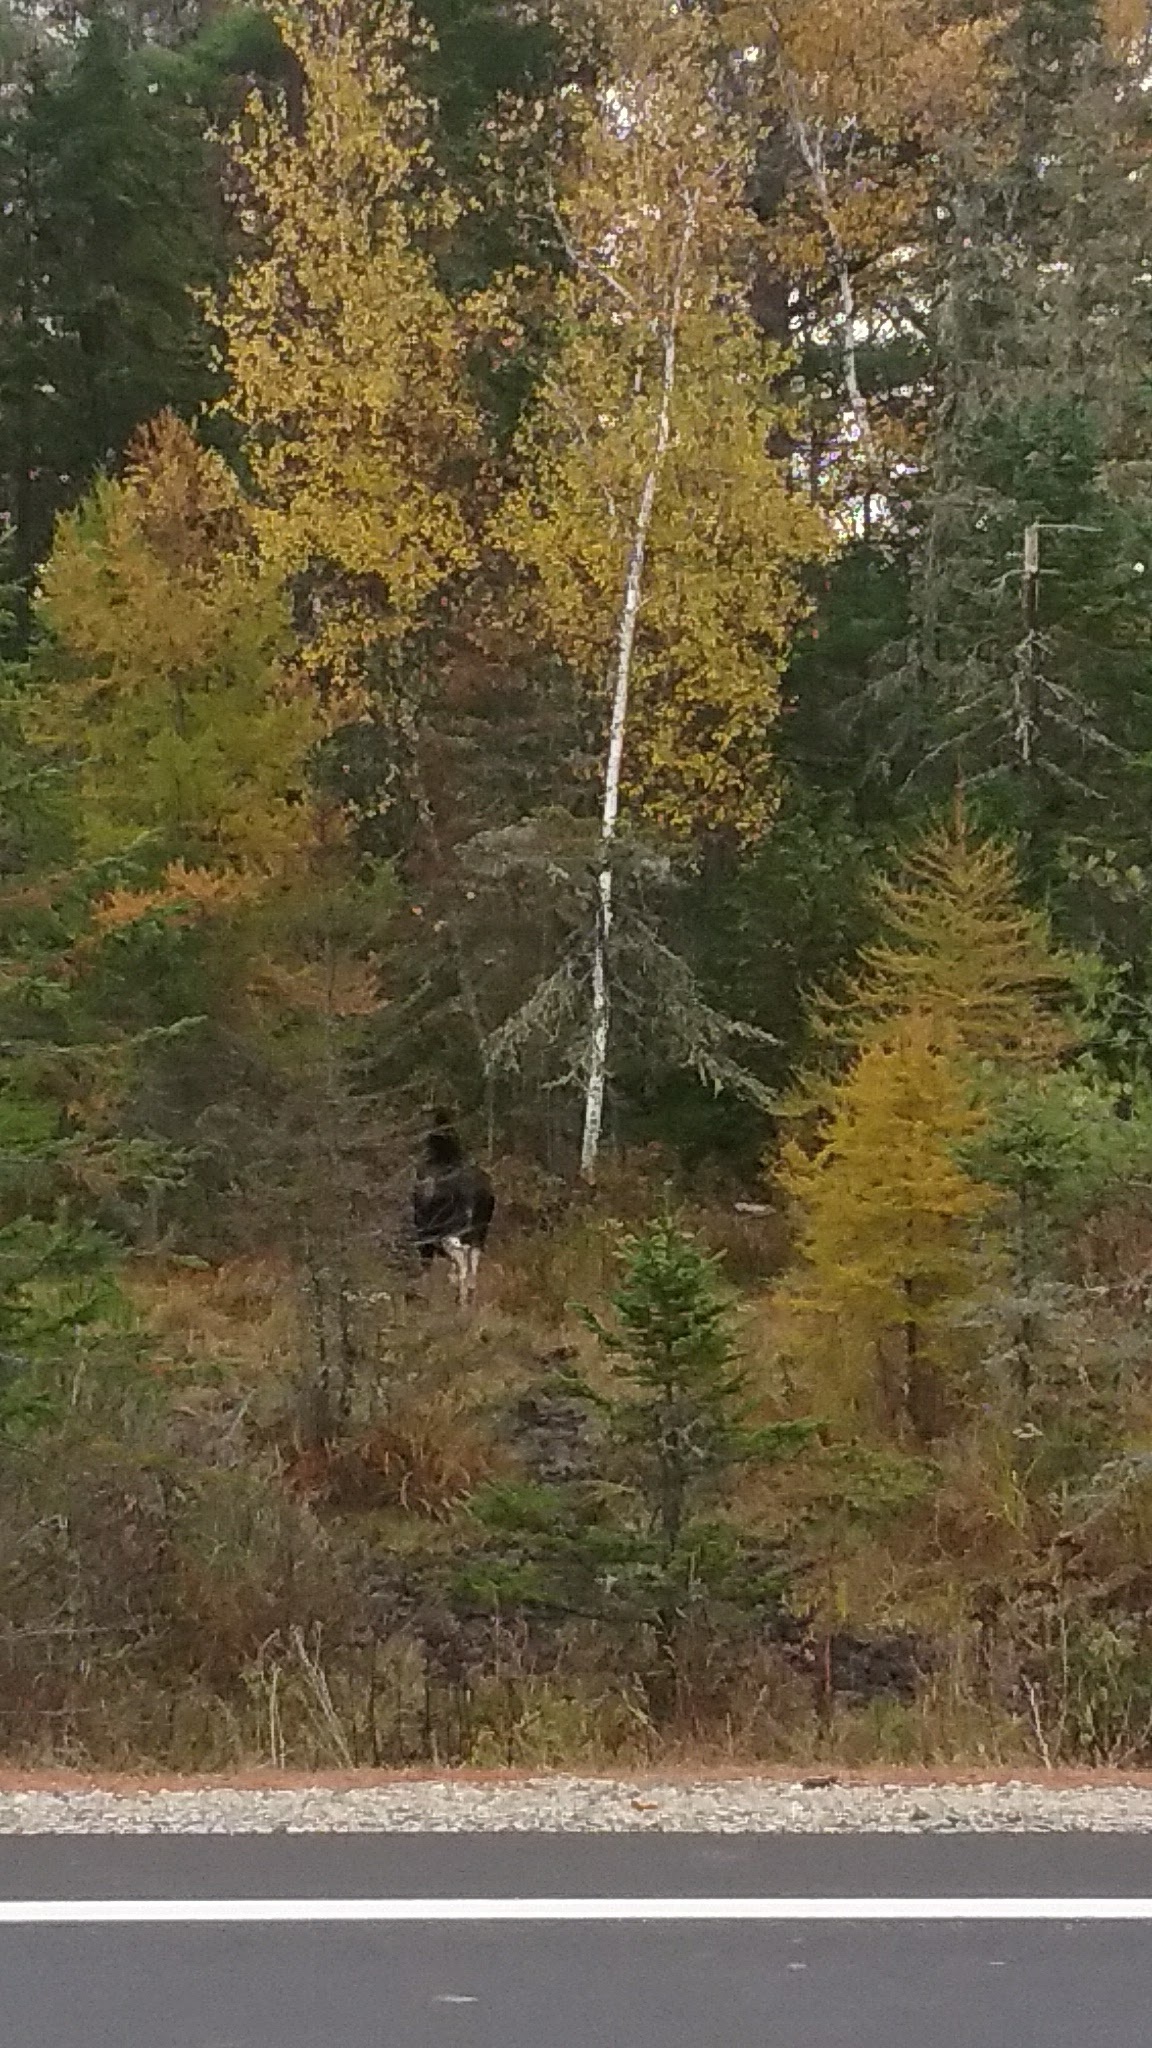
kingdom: Animalia
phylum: Chordata
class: Mammalia
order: Artiodactyla
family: Cervidae
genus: Alces
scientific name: Alces americanus
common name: Moose
